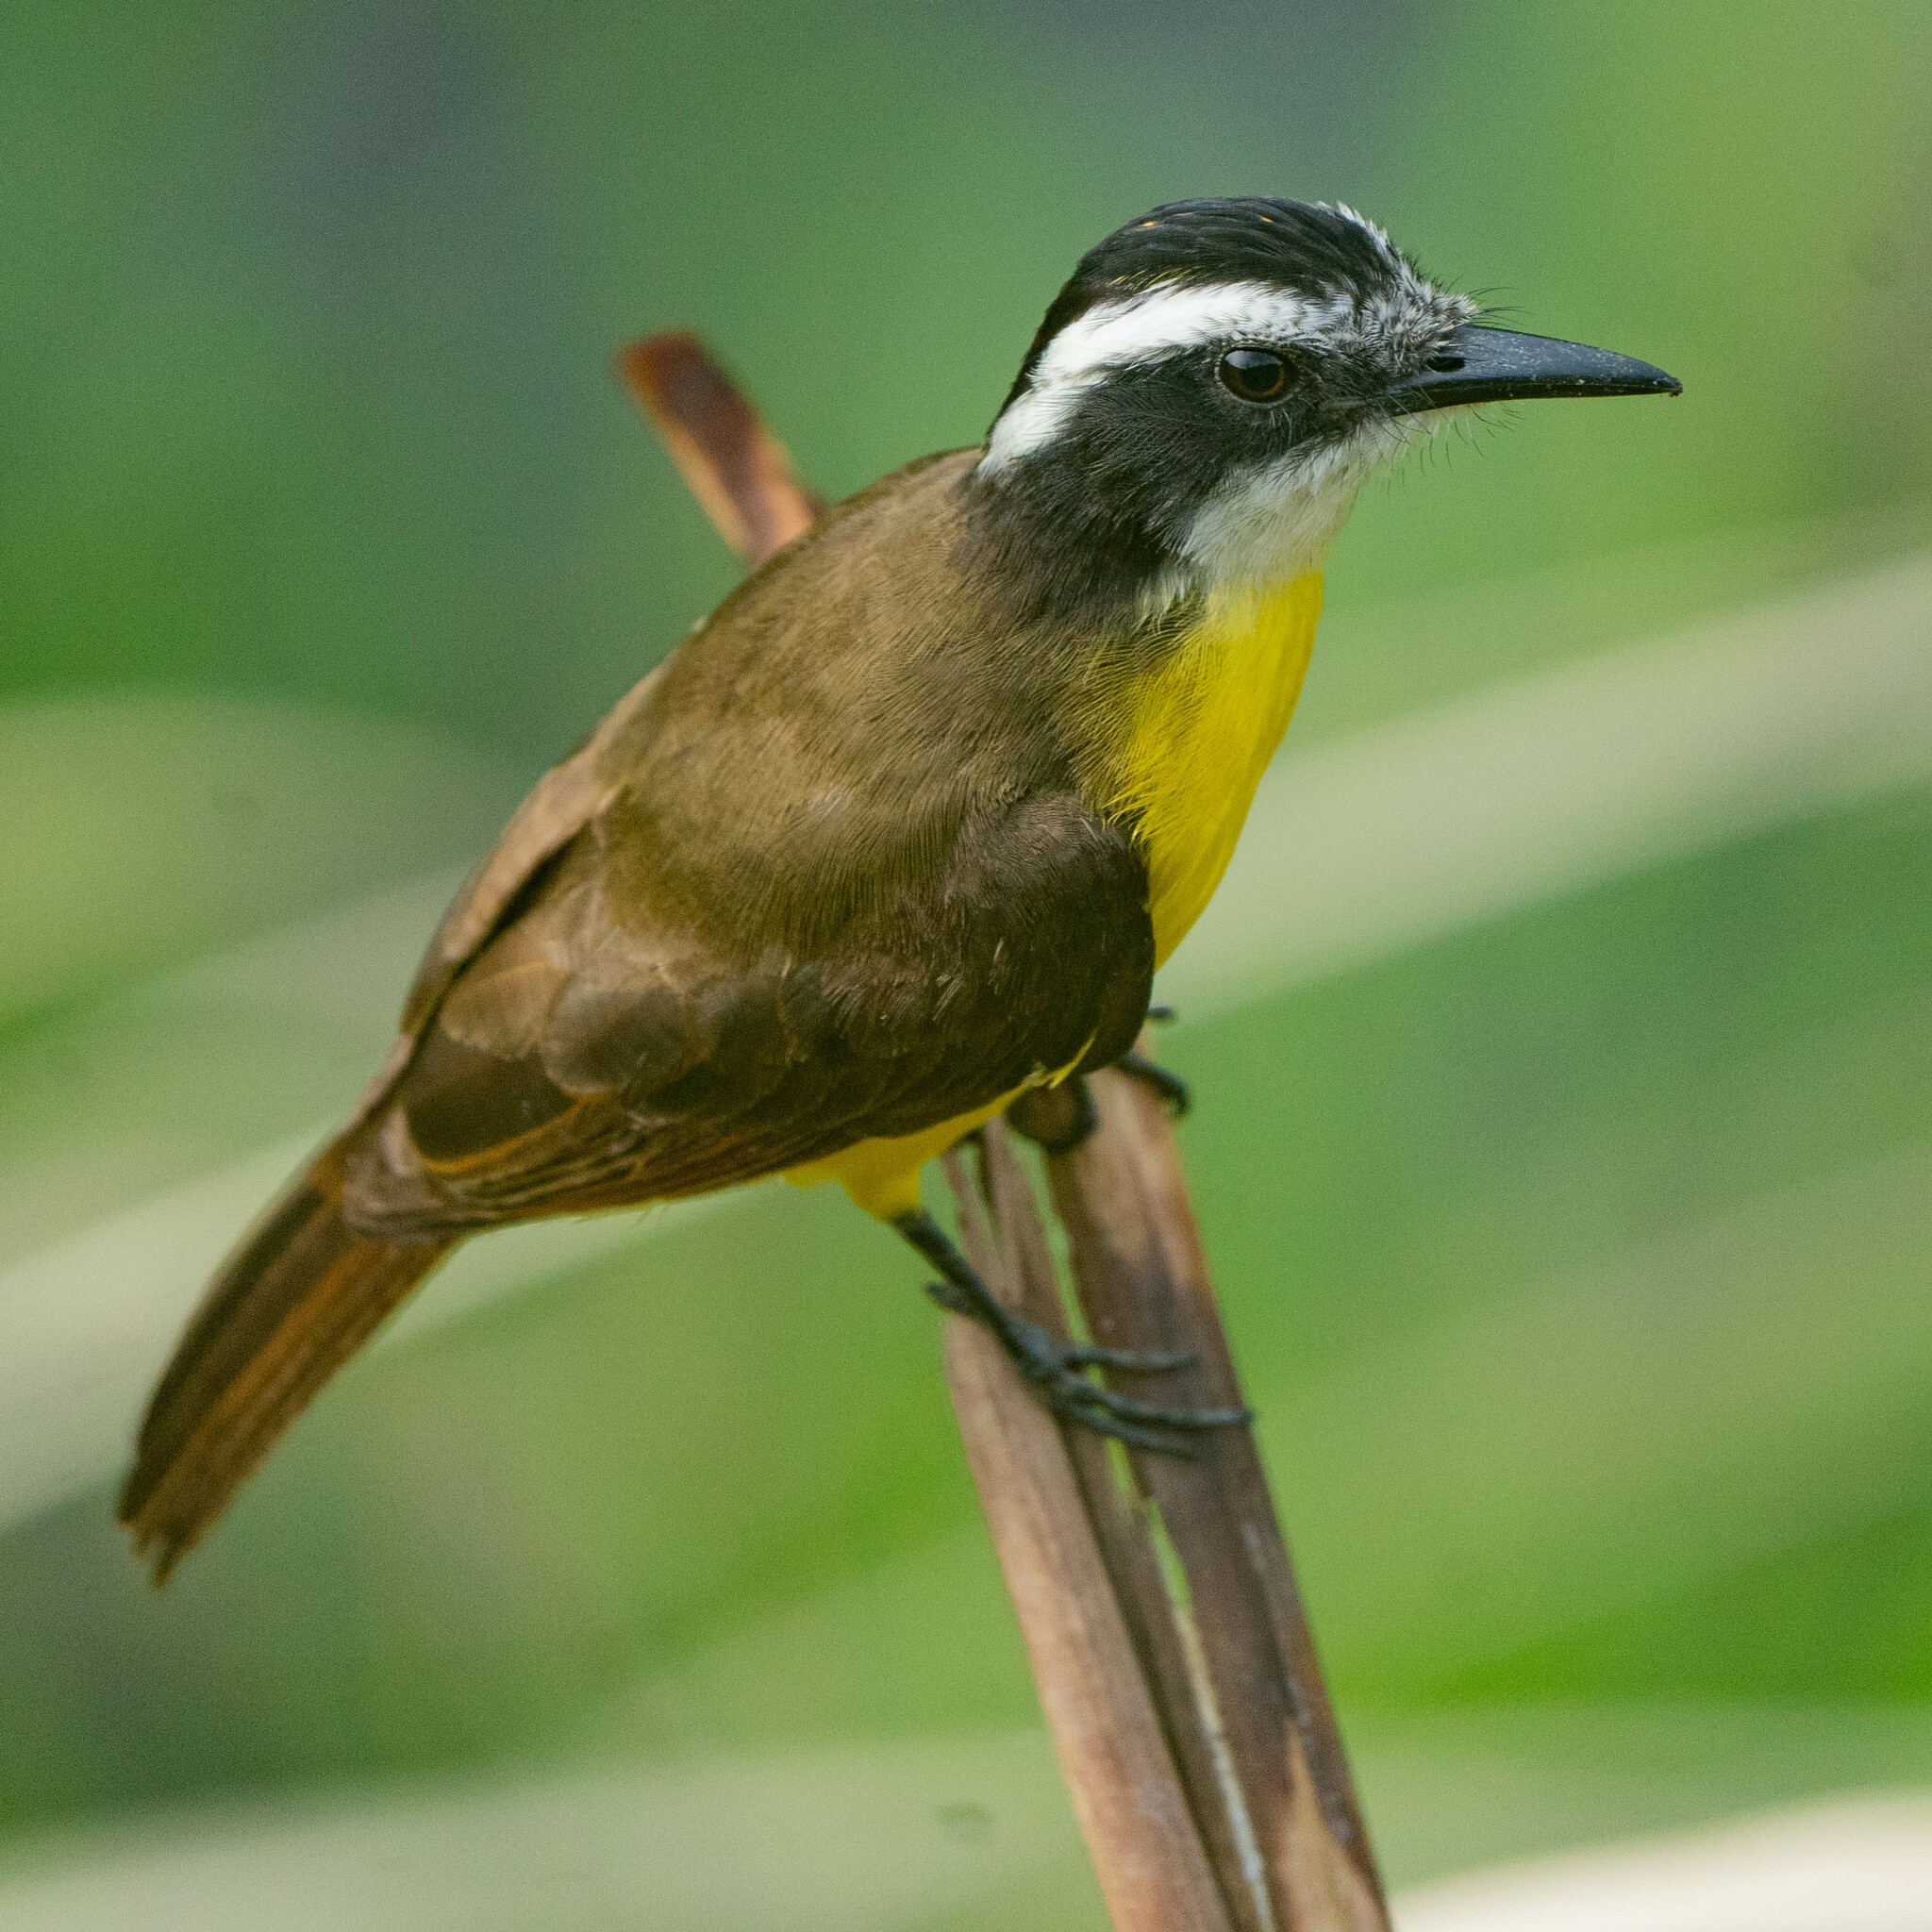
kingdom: Animalia
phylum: Chordata
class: Aves
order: Passeriformes
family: Tyrannidae
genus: Pitangus
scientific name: Pitangus lictor
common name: Lesser kiskadee
